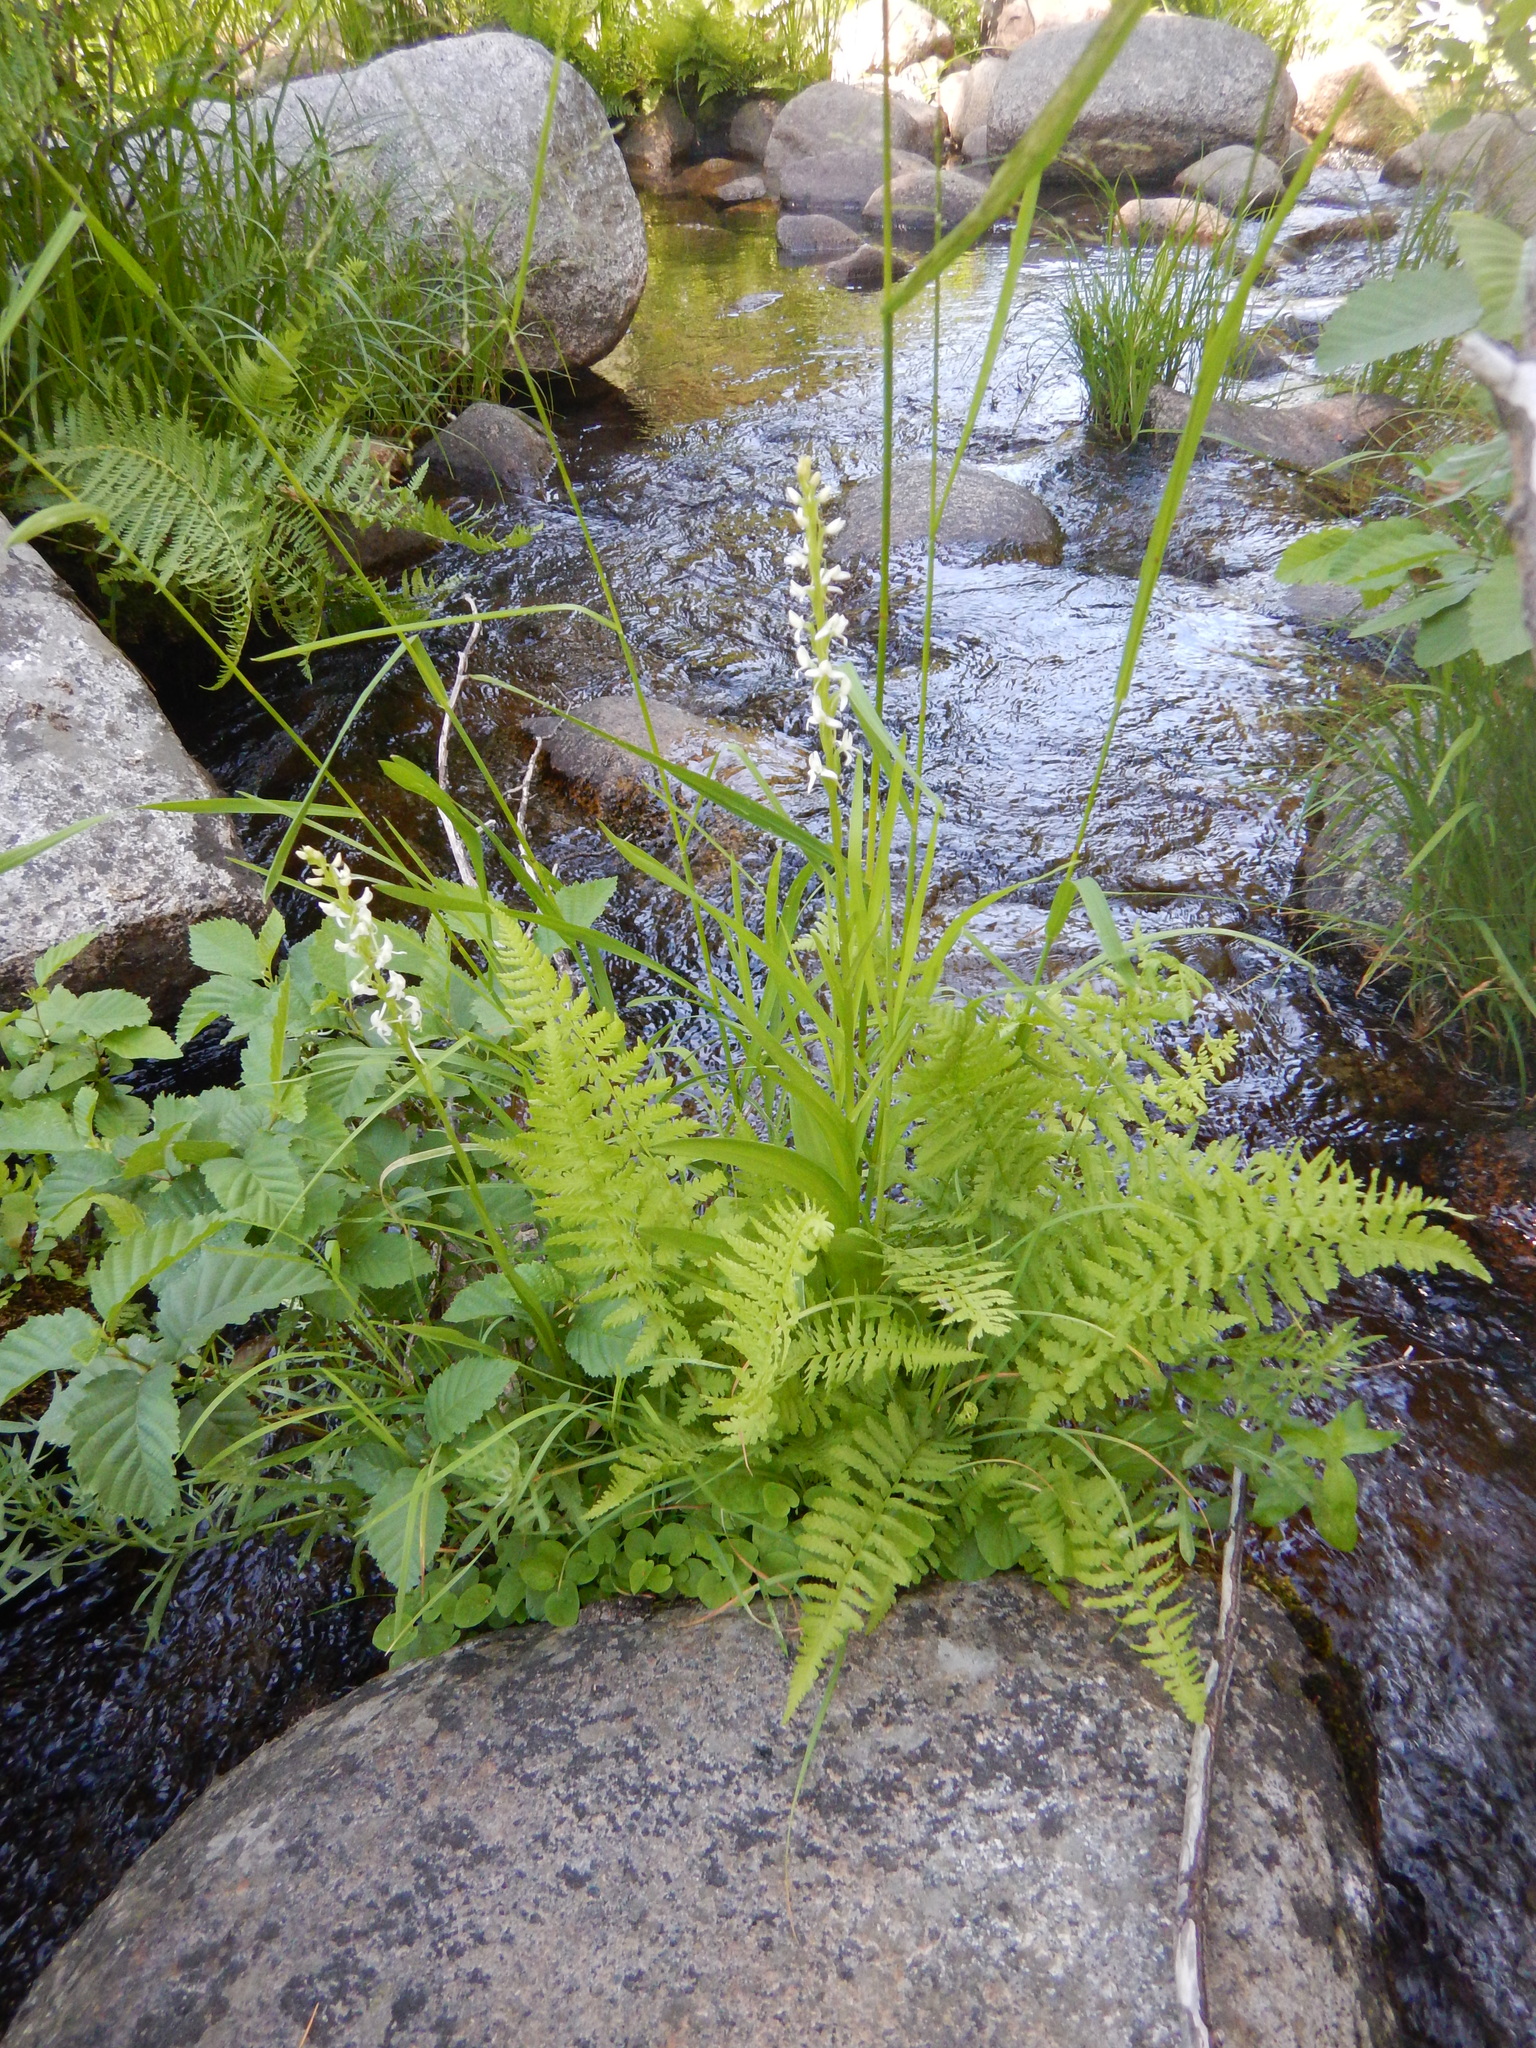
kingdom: Plantae
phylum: Tracheophyta
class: Liliopsida
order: Asparagales
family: Orchidaceae
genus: Platanthera
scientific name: Platanthera dilatata
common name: Bog candles
